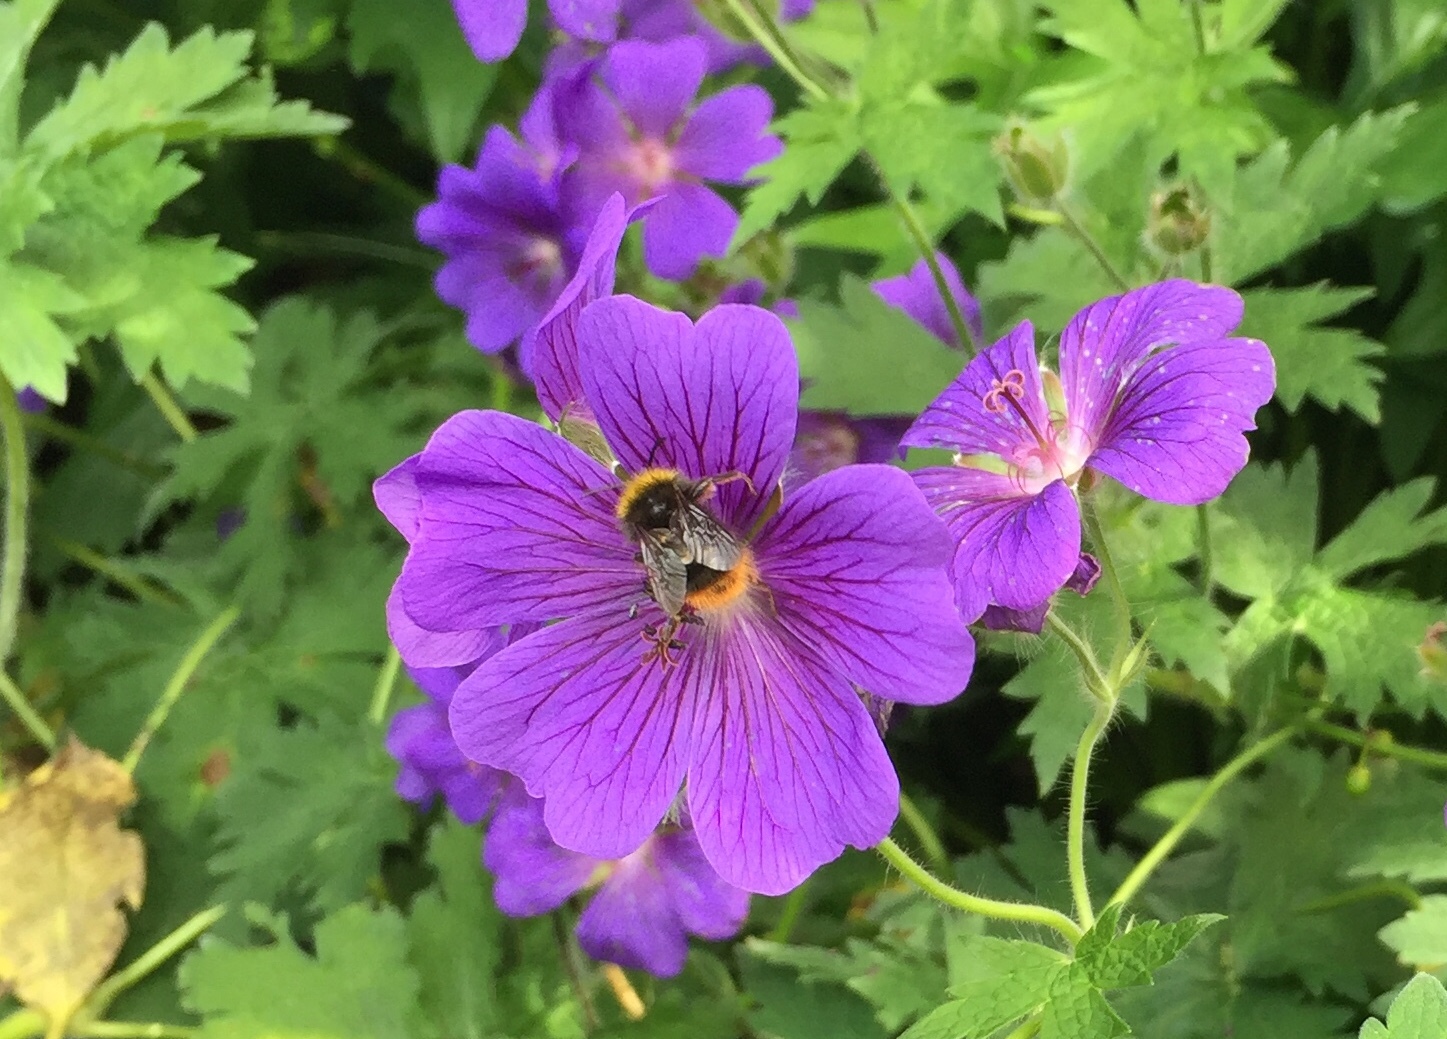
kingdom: Animalia
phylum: Arthropoda
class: Insecta
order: Hymenoptera
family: Apidae
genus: Bombus
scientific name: Bombus pratorum
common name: Early humble-bee
